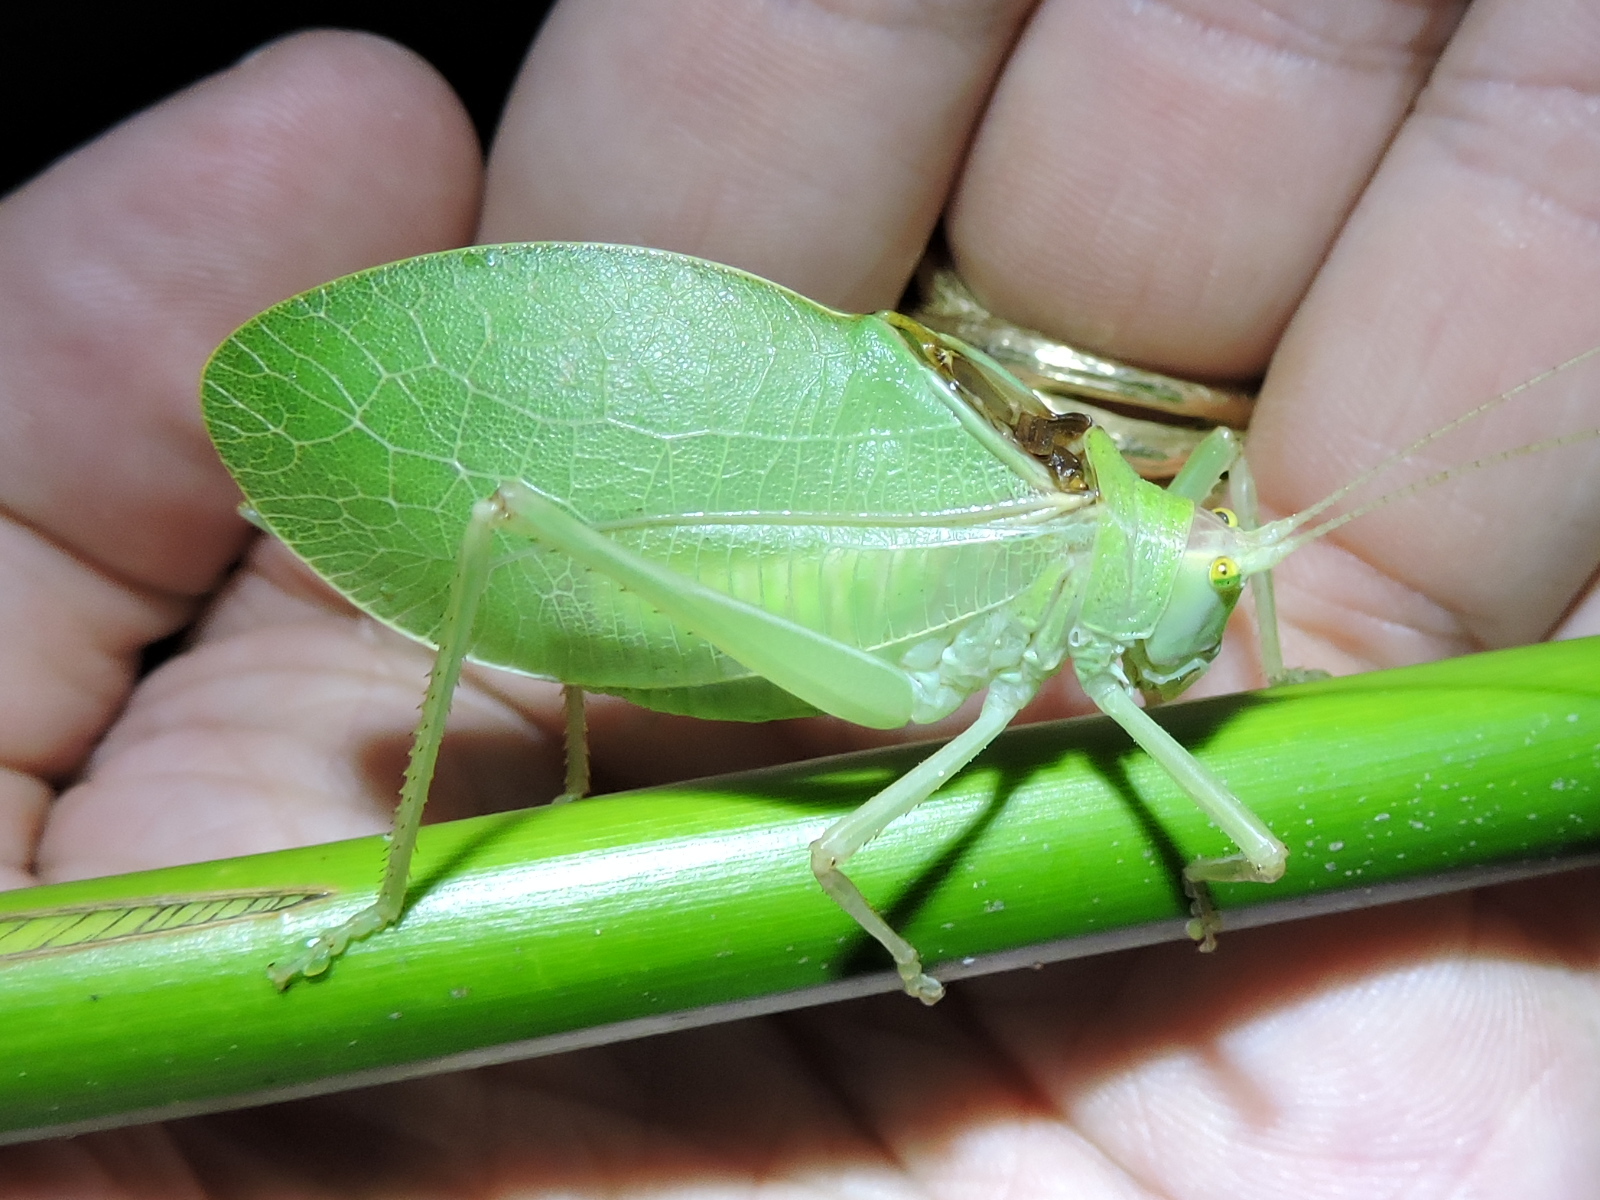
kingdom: Animalia
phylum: Arthropoda
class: Insecta
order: Orthoptera
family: Tettigoniidae
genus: Pterophylla
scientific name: Pterophylla camellifolia
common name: Common true katydid
